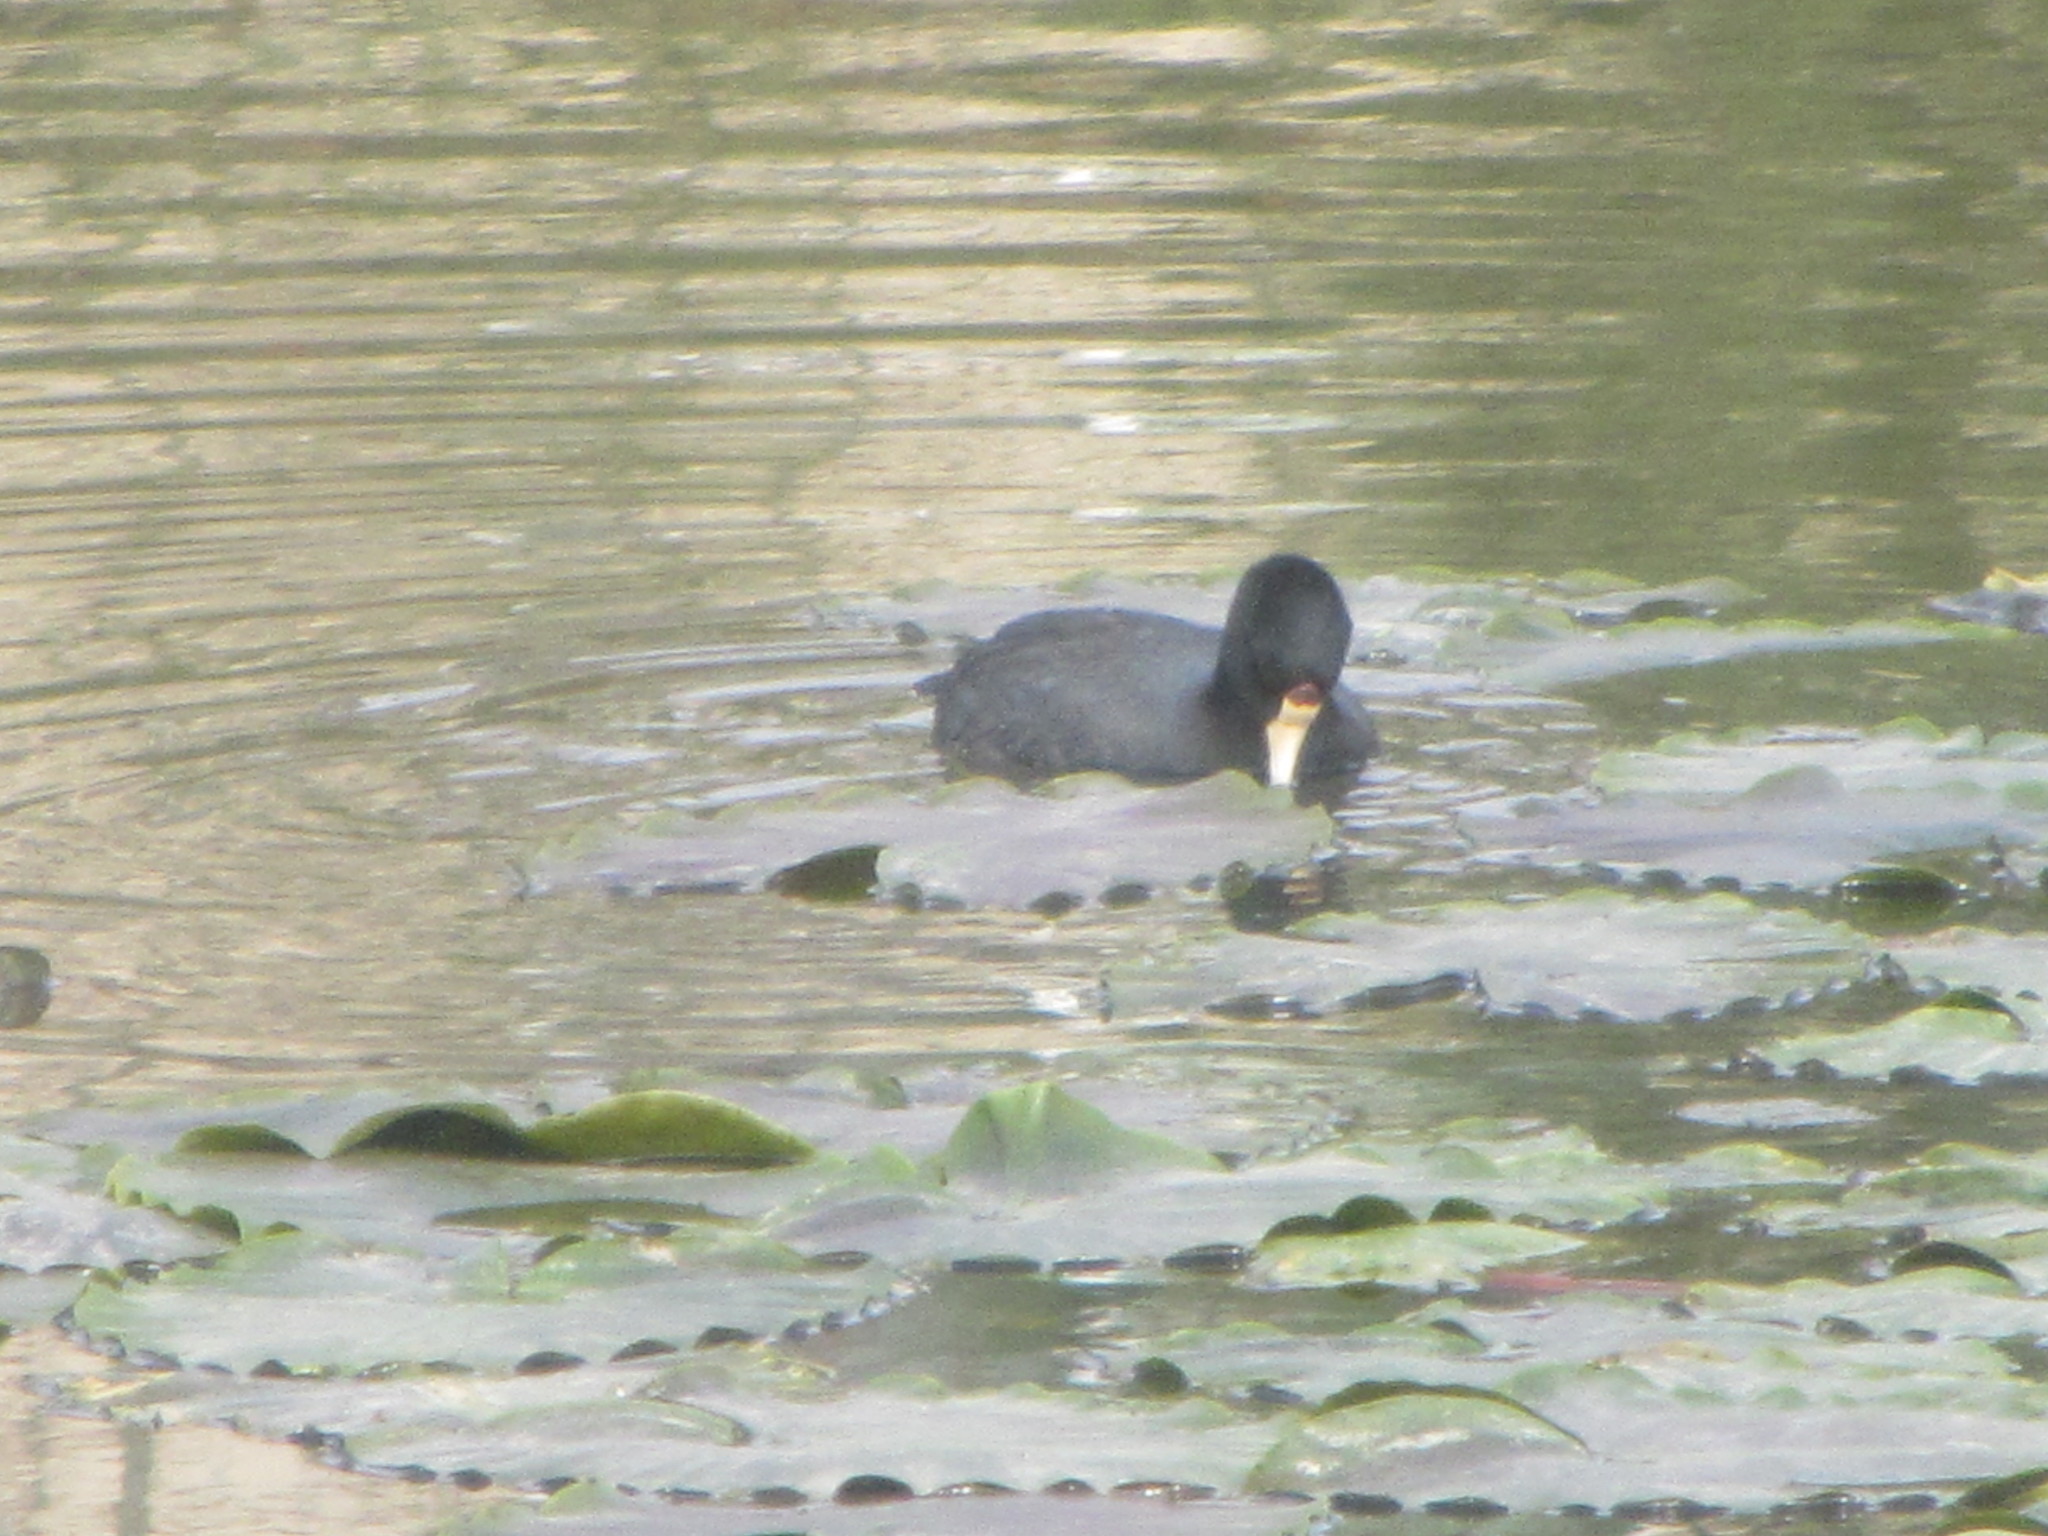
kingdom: Animalia
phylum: Chordata
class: Aves
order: Gruiformes
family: Rallidae
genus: Fulica
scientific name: Fulica americana
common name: American coot
